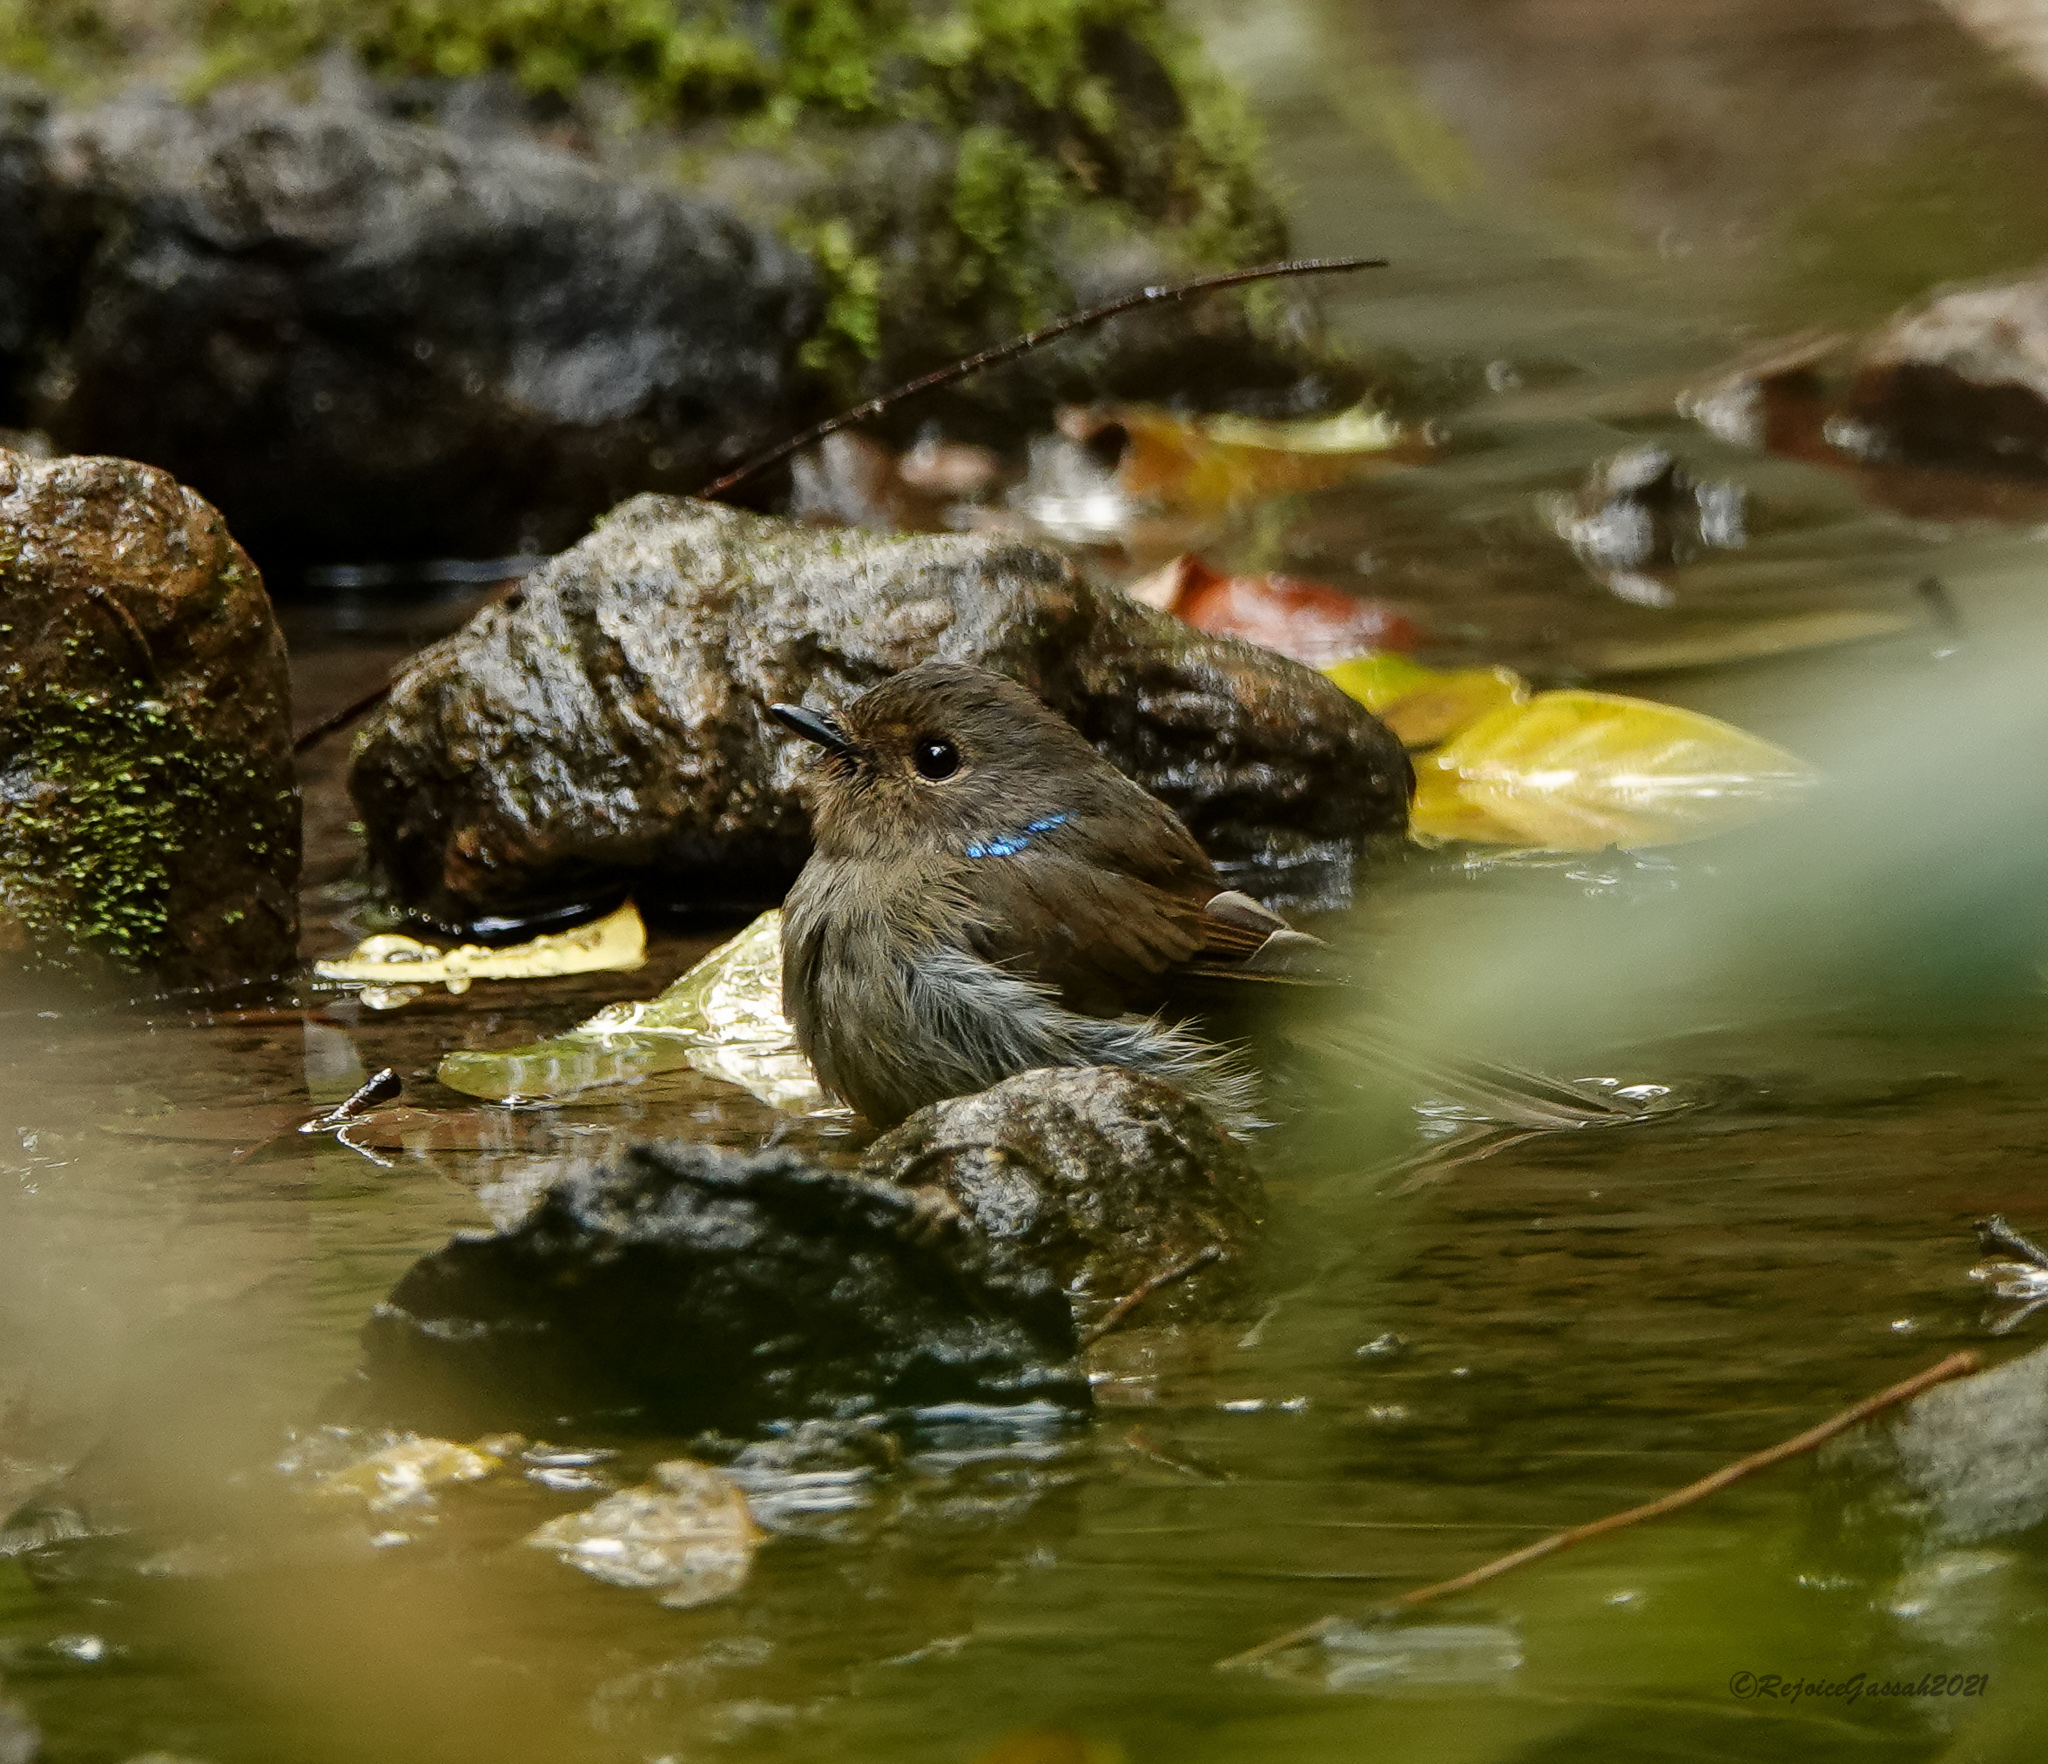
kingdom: Animalia
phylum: Chordata
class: Aves
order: Passeriformes
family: Muscicapidae
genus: Niltava
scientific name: Niltava macgrigoriae
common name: Small niltava
